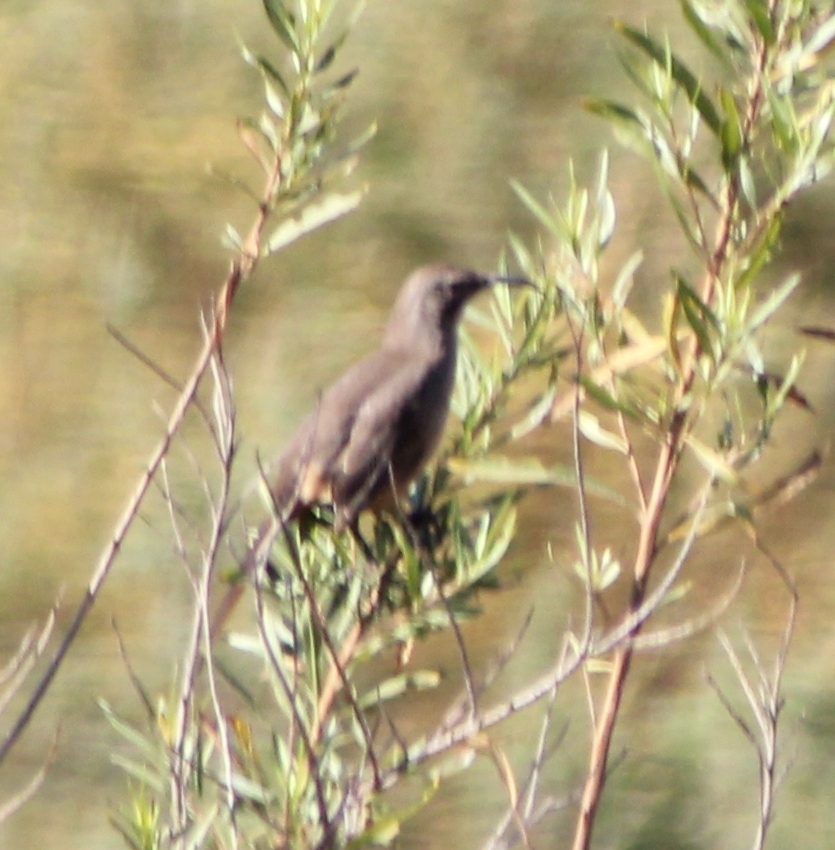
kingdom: Animalia
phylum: Chordata
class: Aves
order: Passeriformes
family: Mimidae
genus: Toxostoma
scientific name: Toxostoma redivivum
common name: California thrasher
